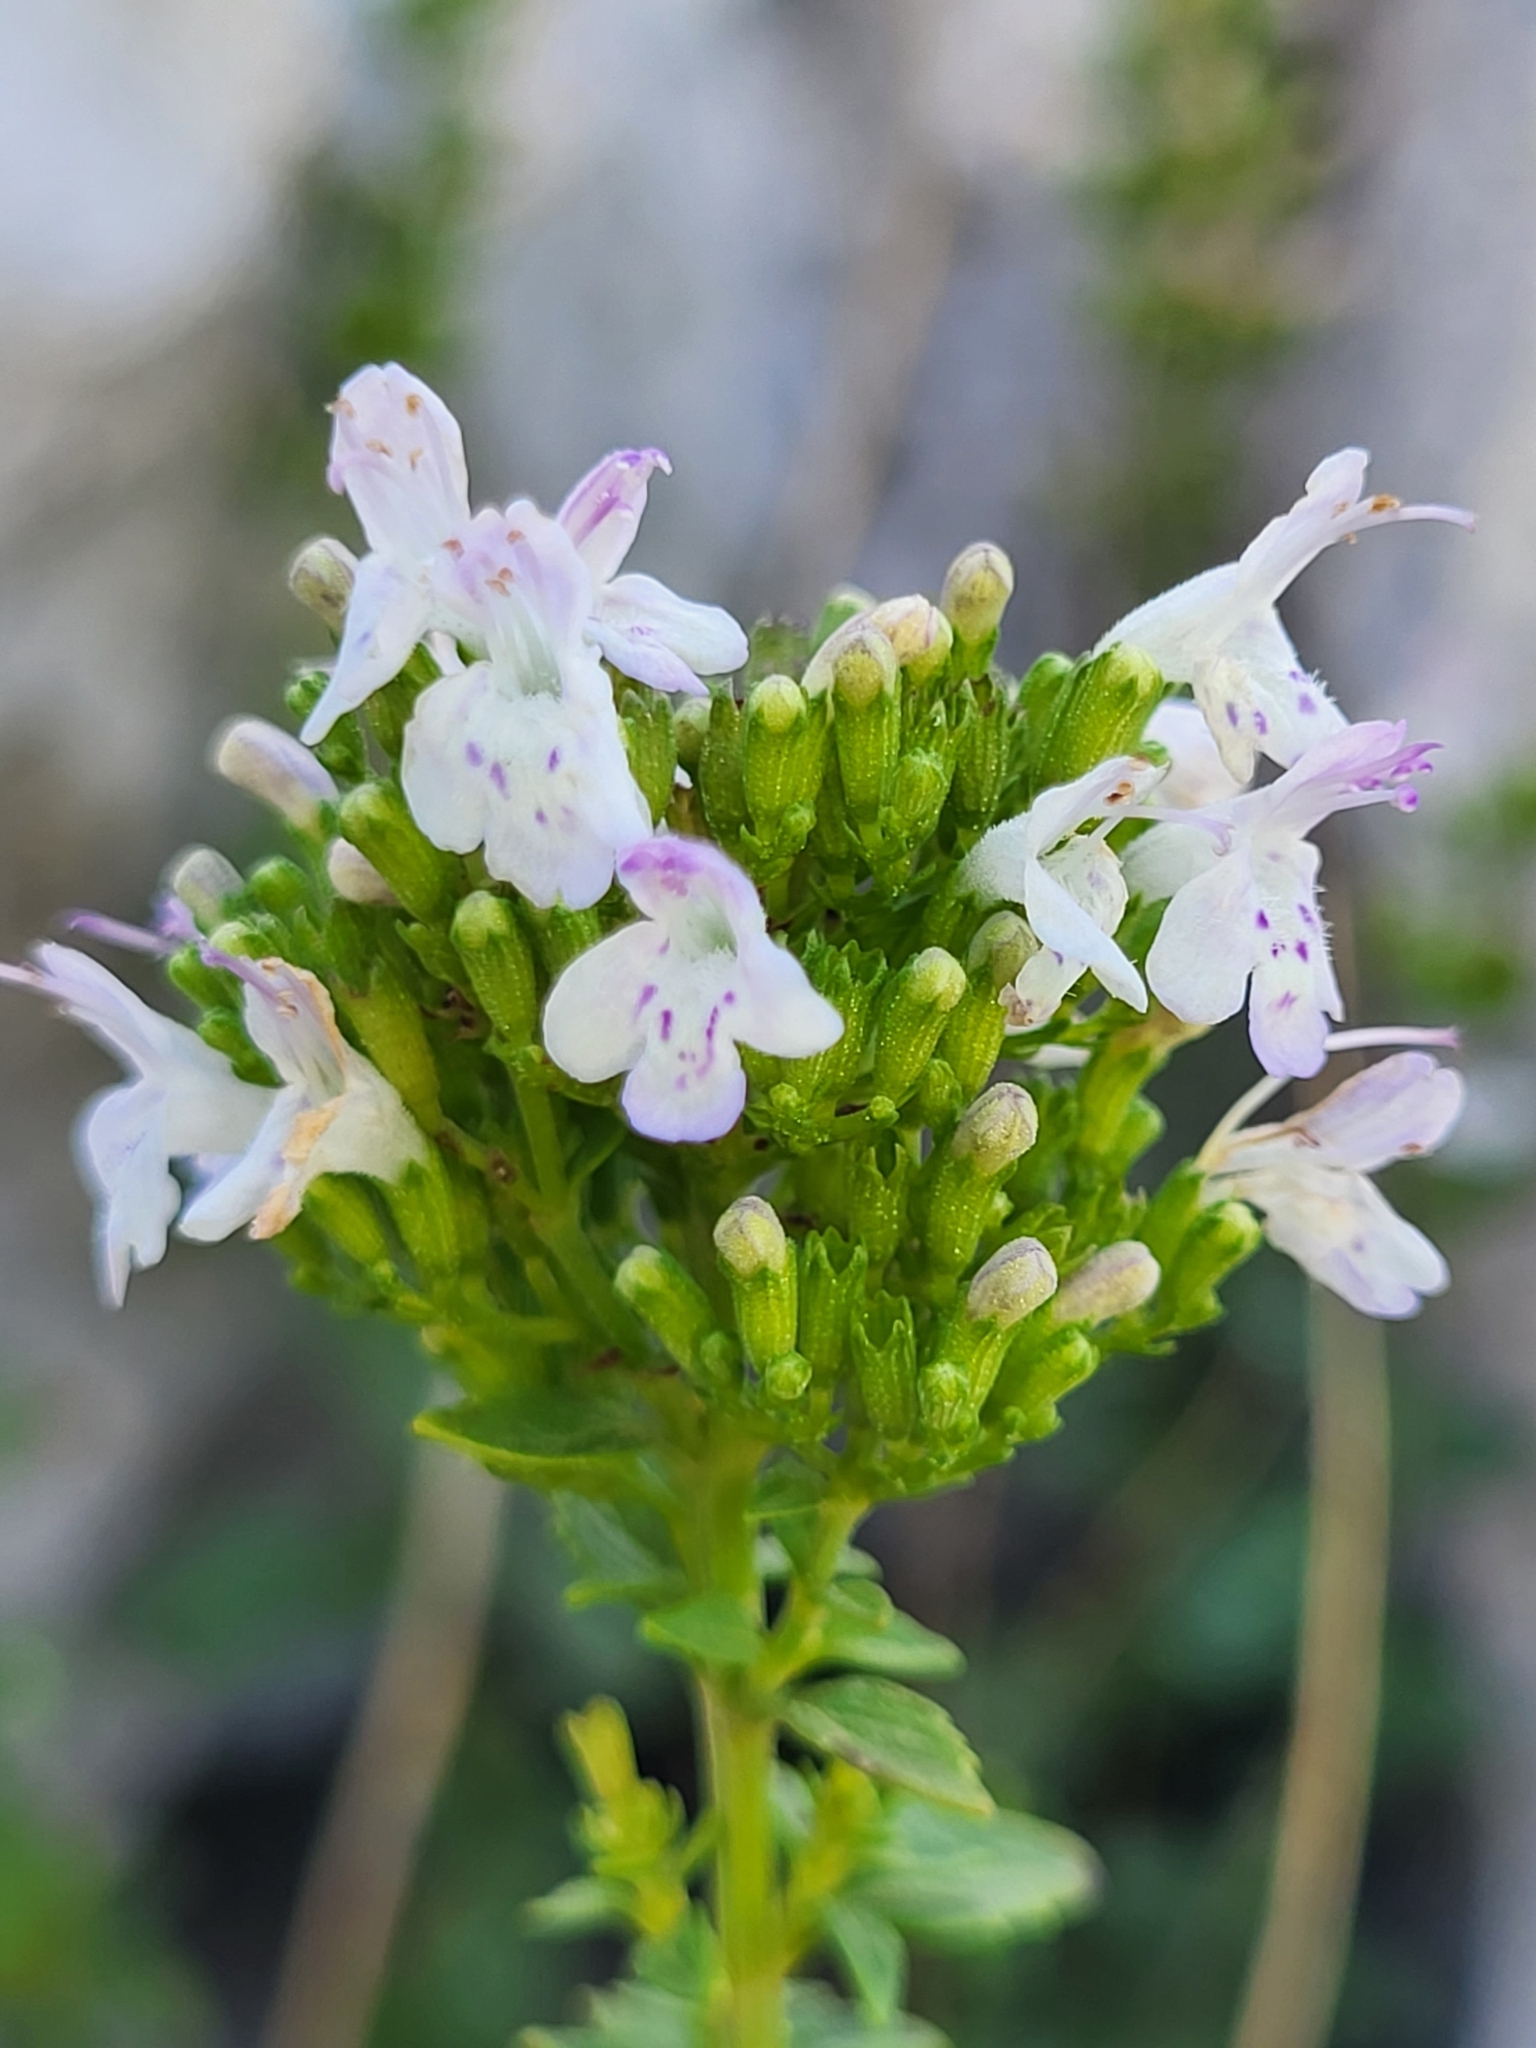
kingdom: Plantae
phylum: Tracheophyta
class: Magnoliopsida
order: Lamiales
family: Lamiaceae
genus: Clinopodium
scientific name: Clinopodium album
